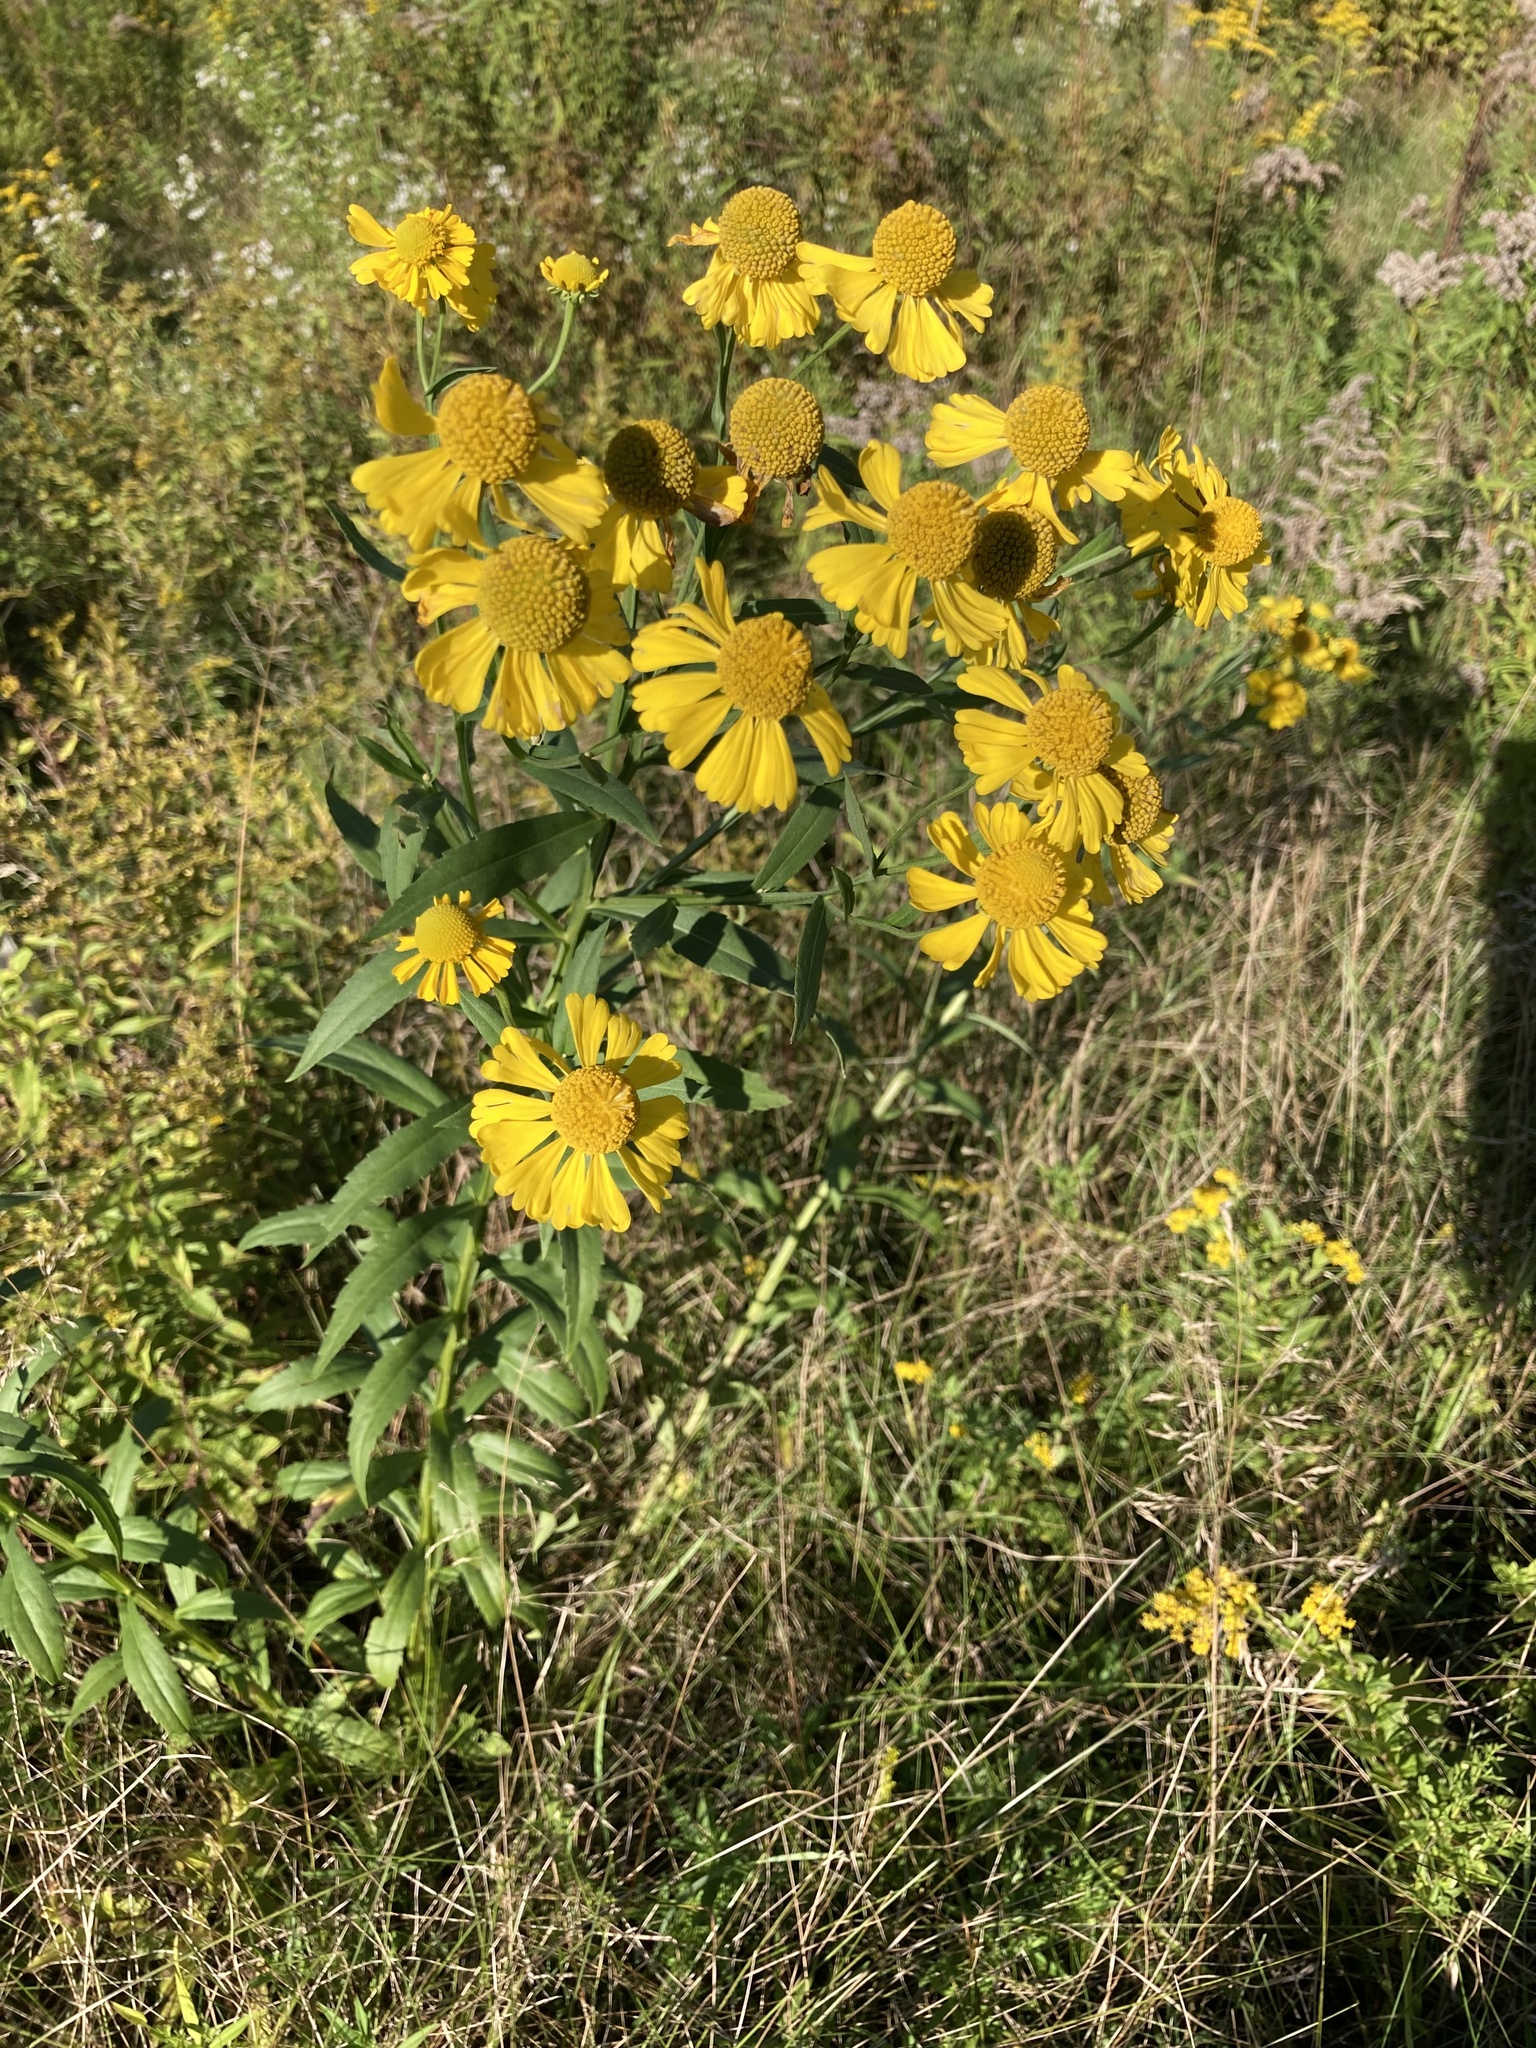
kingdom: Plantae
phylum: Tracheophyta
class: Magnoliopsida
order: Asterales
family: Asteraceae
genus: Helenium
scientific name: Helenium autumnale
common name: Sneezeweed
